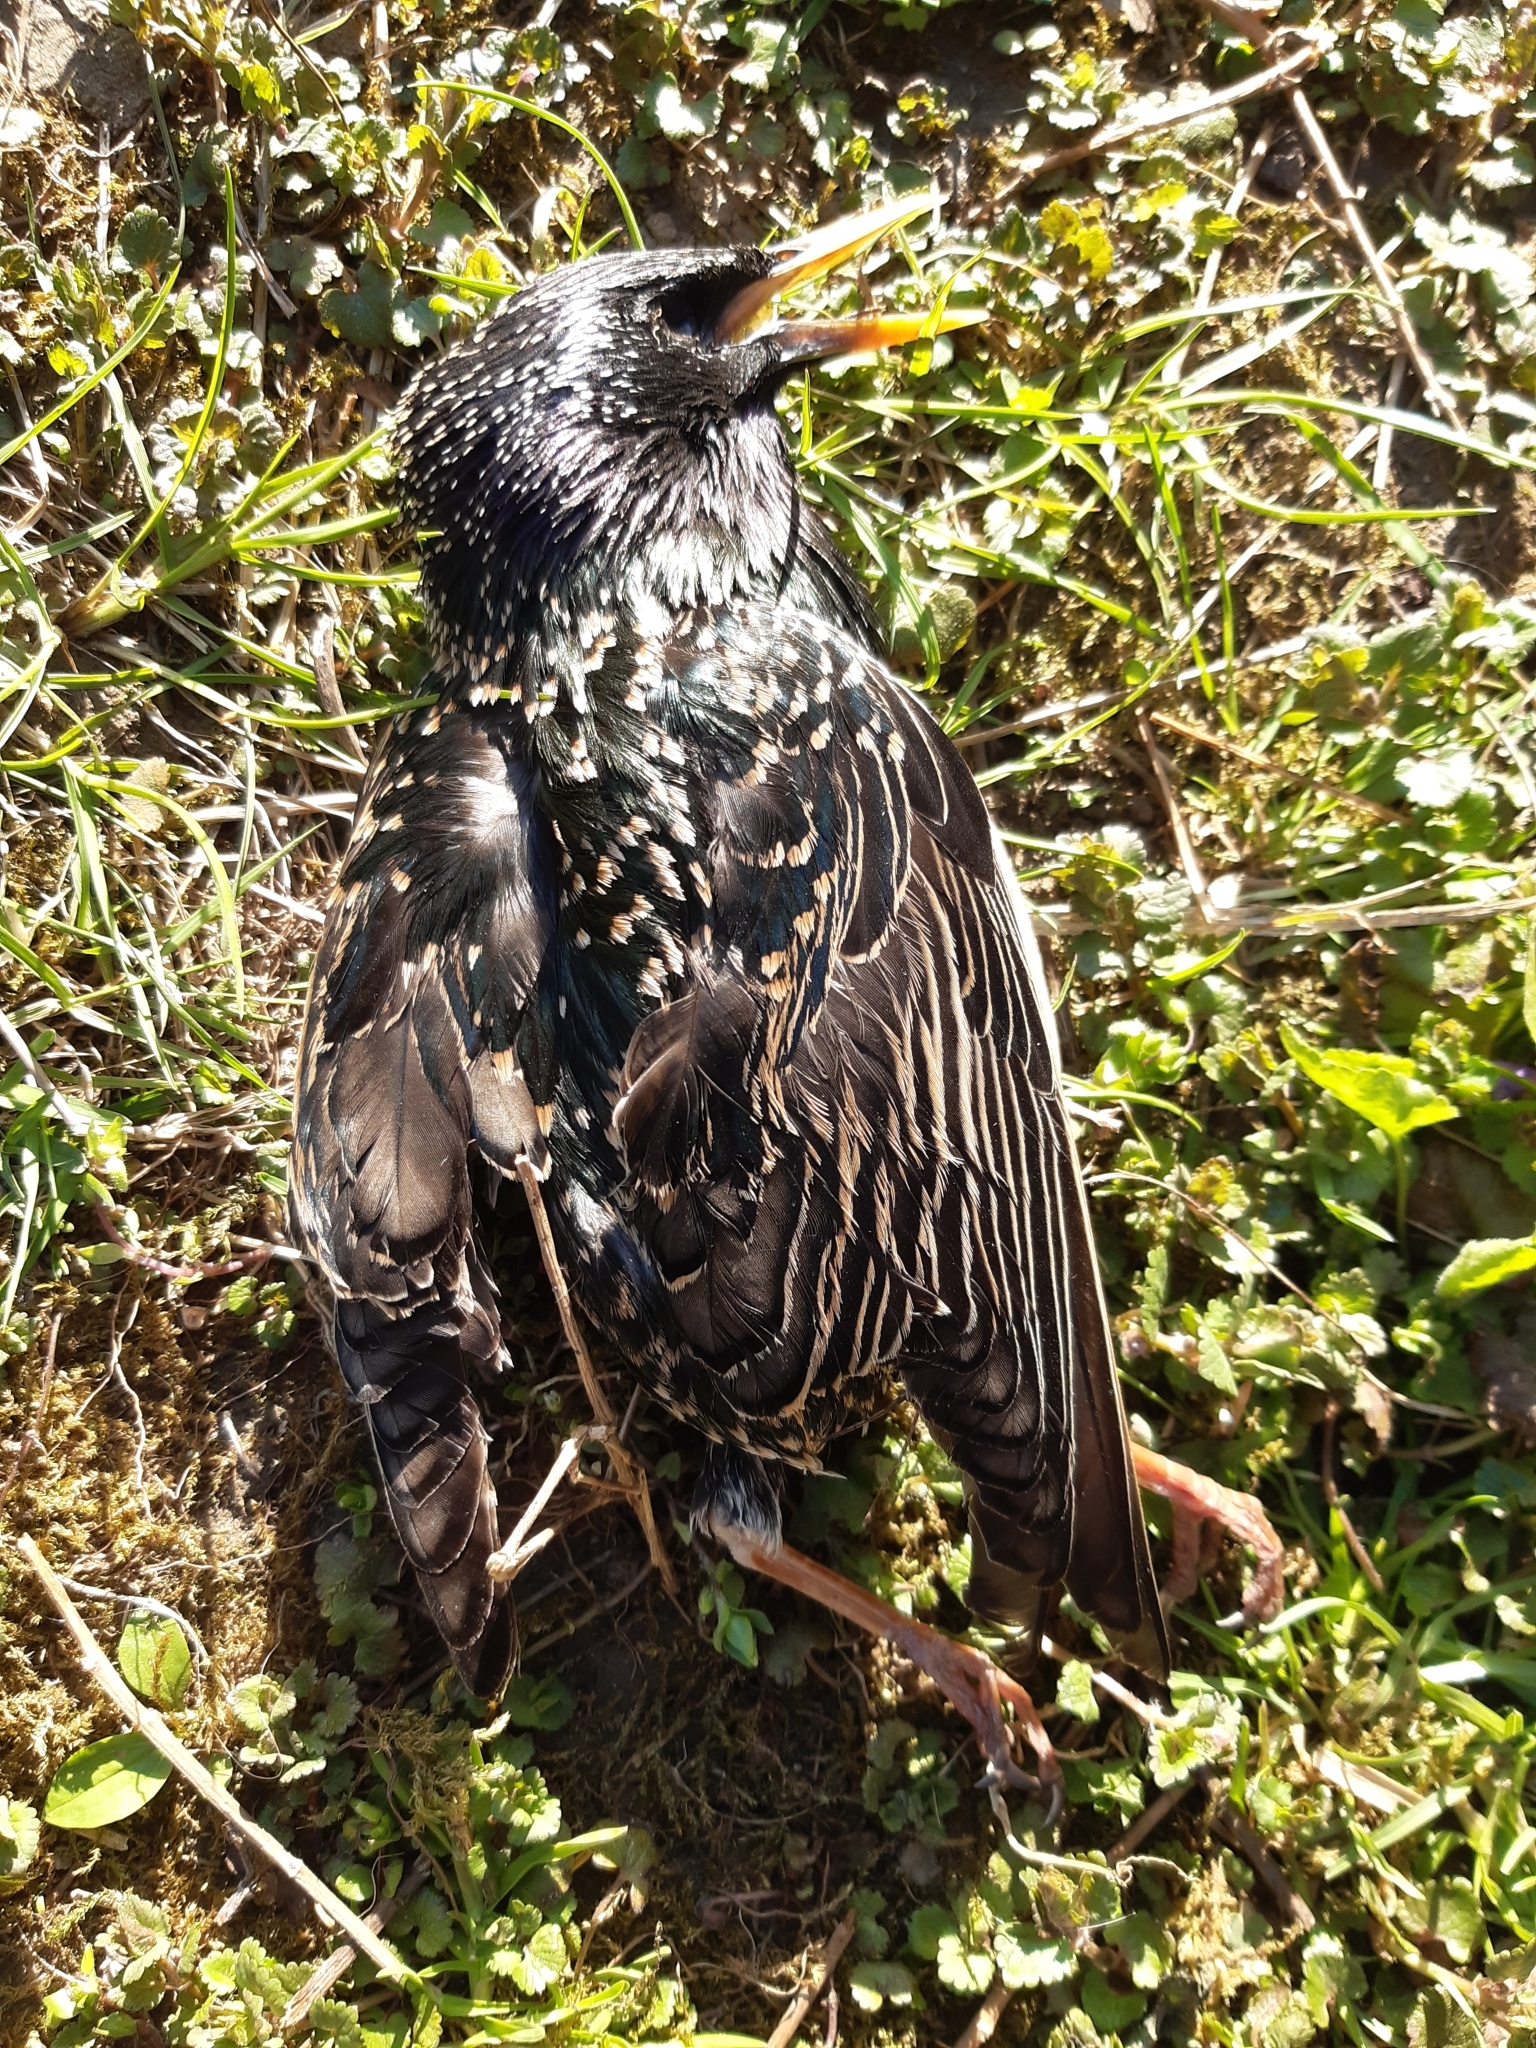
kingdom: Animalia
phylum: Chordata
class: Aves
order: Passeriformes
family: Sturnidae
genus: Sturnus
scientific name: Sturnus vulgaris
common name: Common starling
